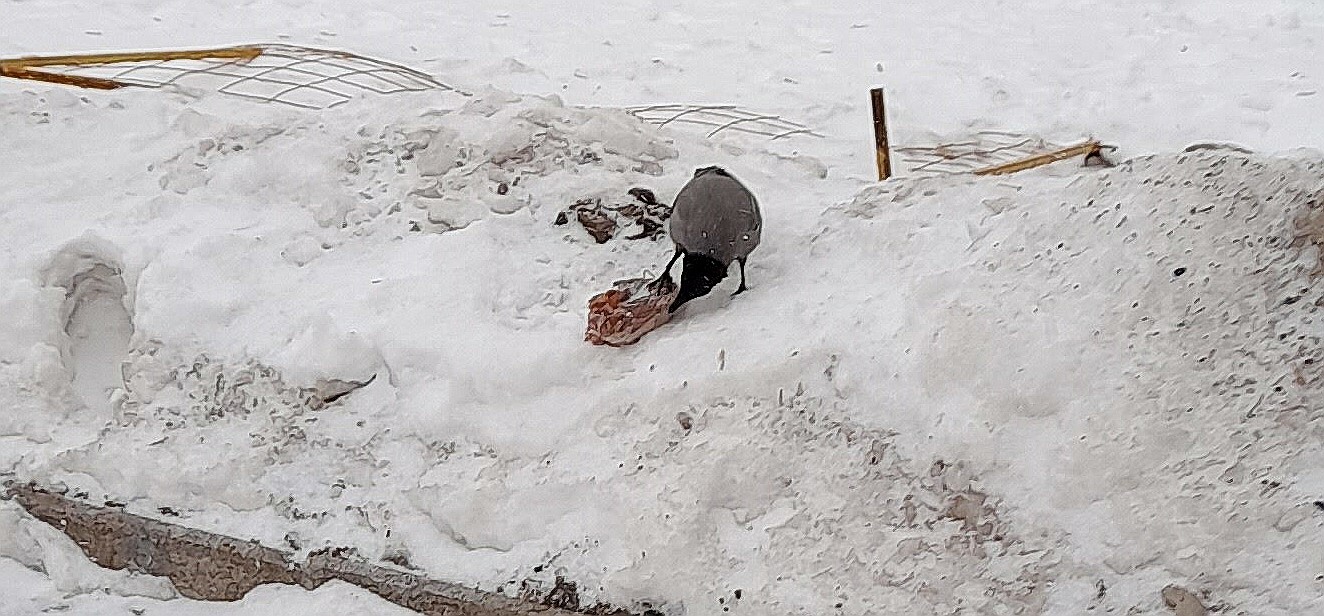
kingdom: Animalia
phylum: Chordata
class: Aves
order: Passeriformes
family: Corvidae
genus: Corvus
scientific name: Corvus cornix
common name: Hooded crow
